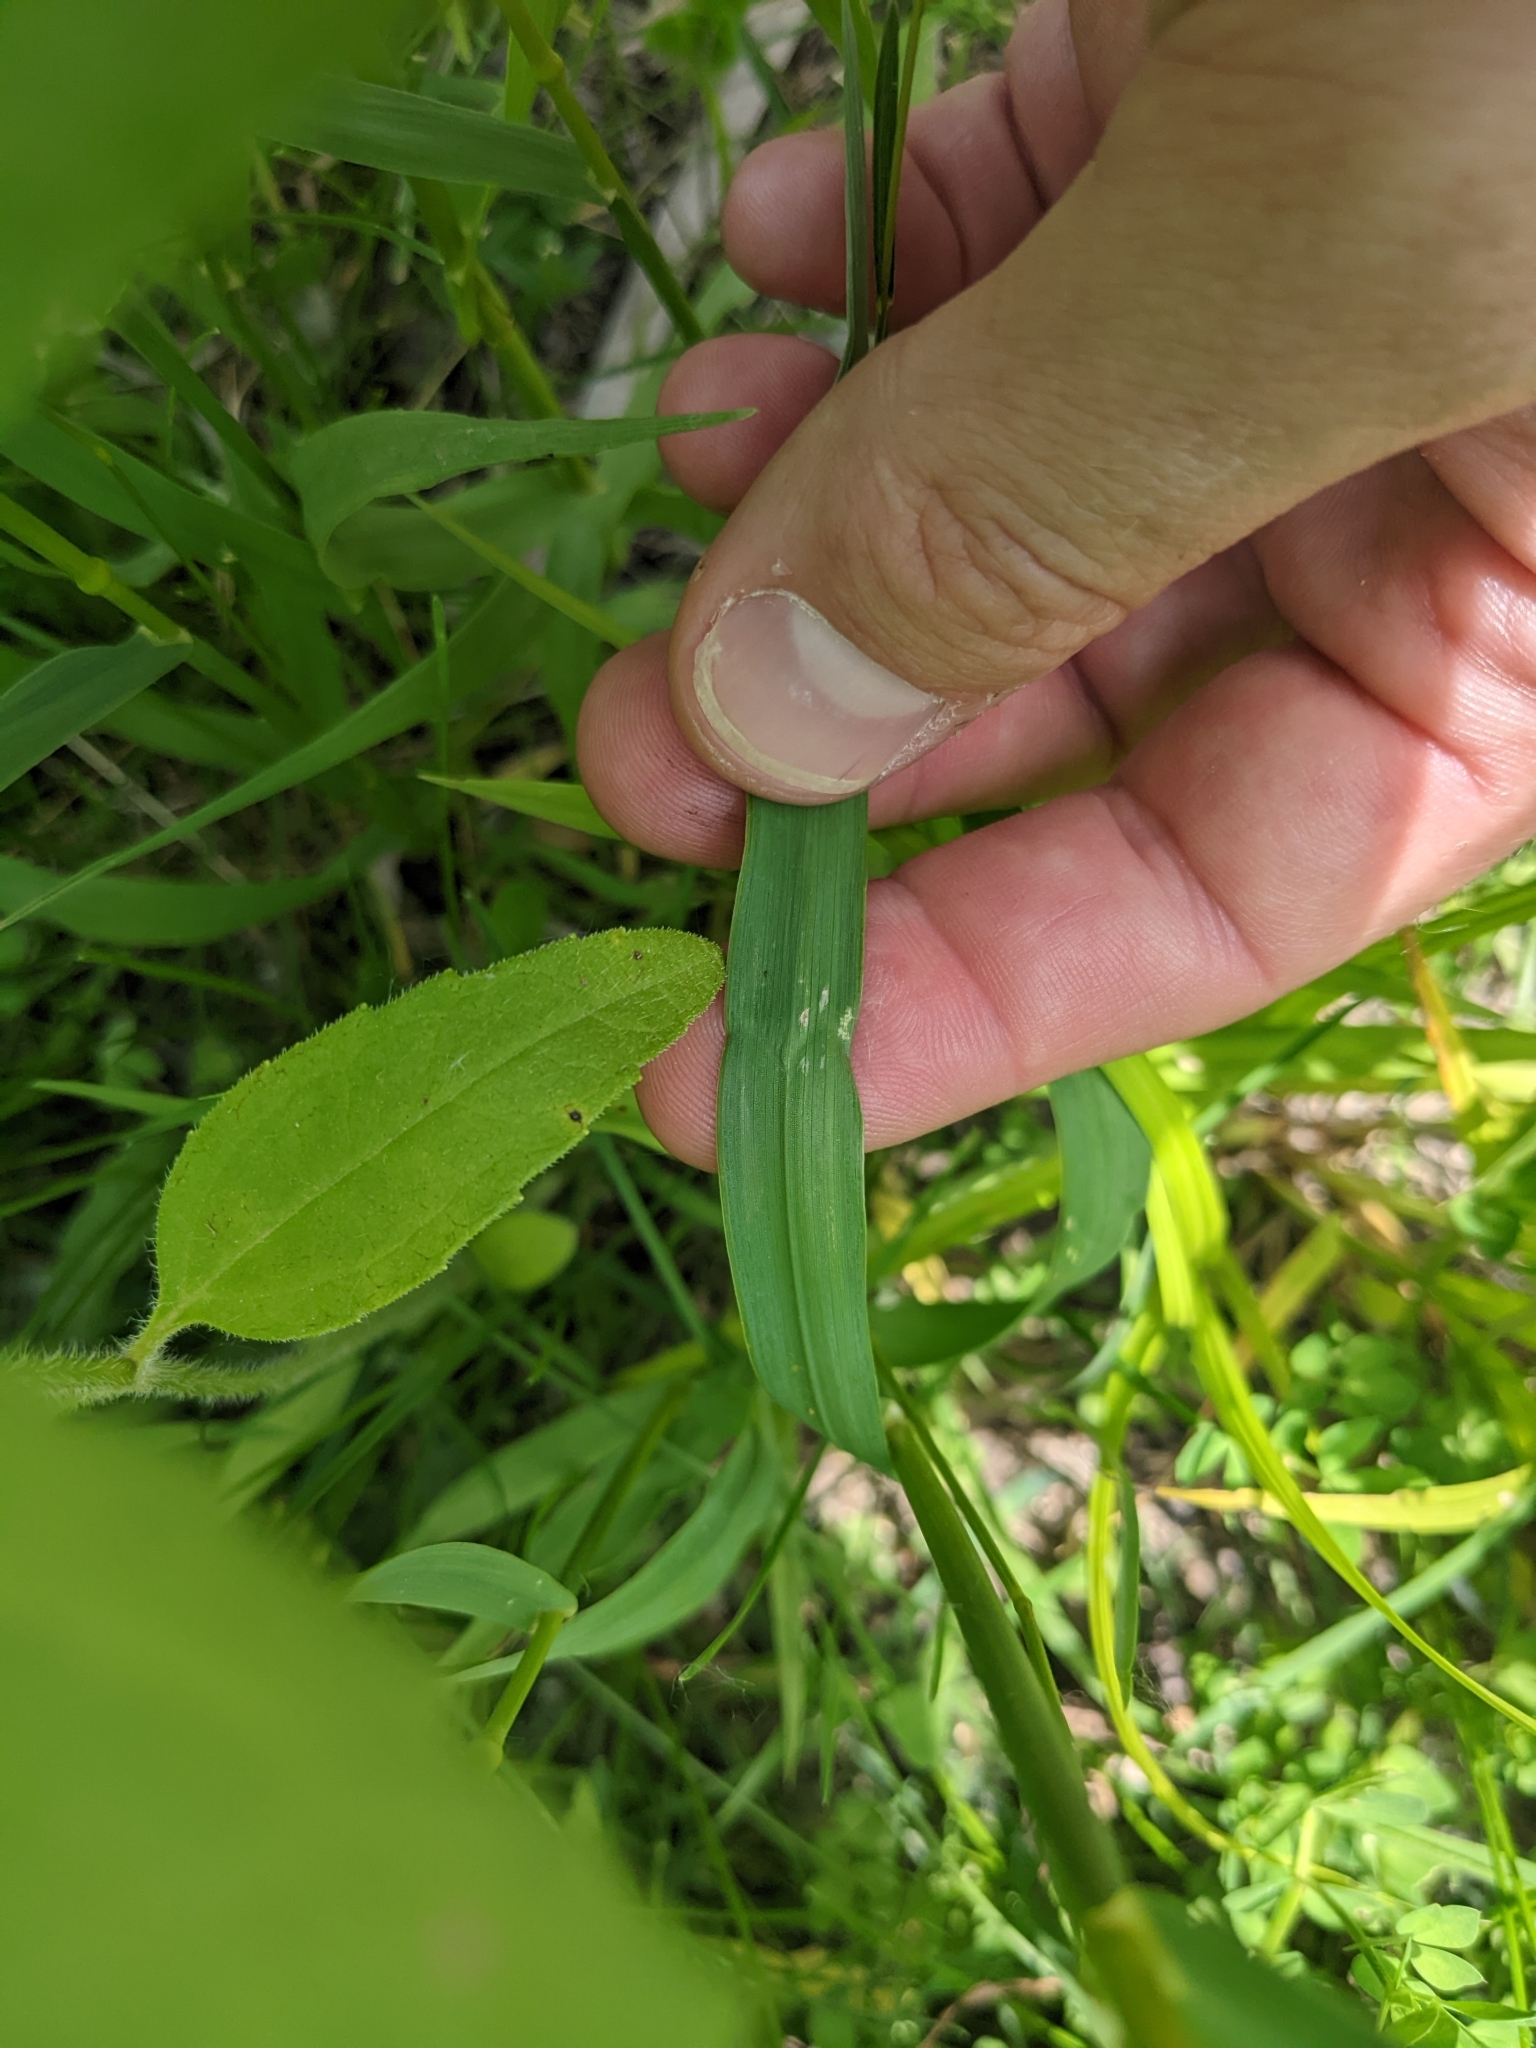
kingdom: Plantae
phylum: Tracheophyta
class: Liliopsida
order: Poales
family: Poaceae
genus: Bromus
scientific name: Bromus inermis
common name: Smooth brome
